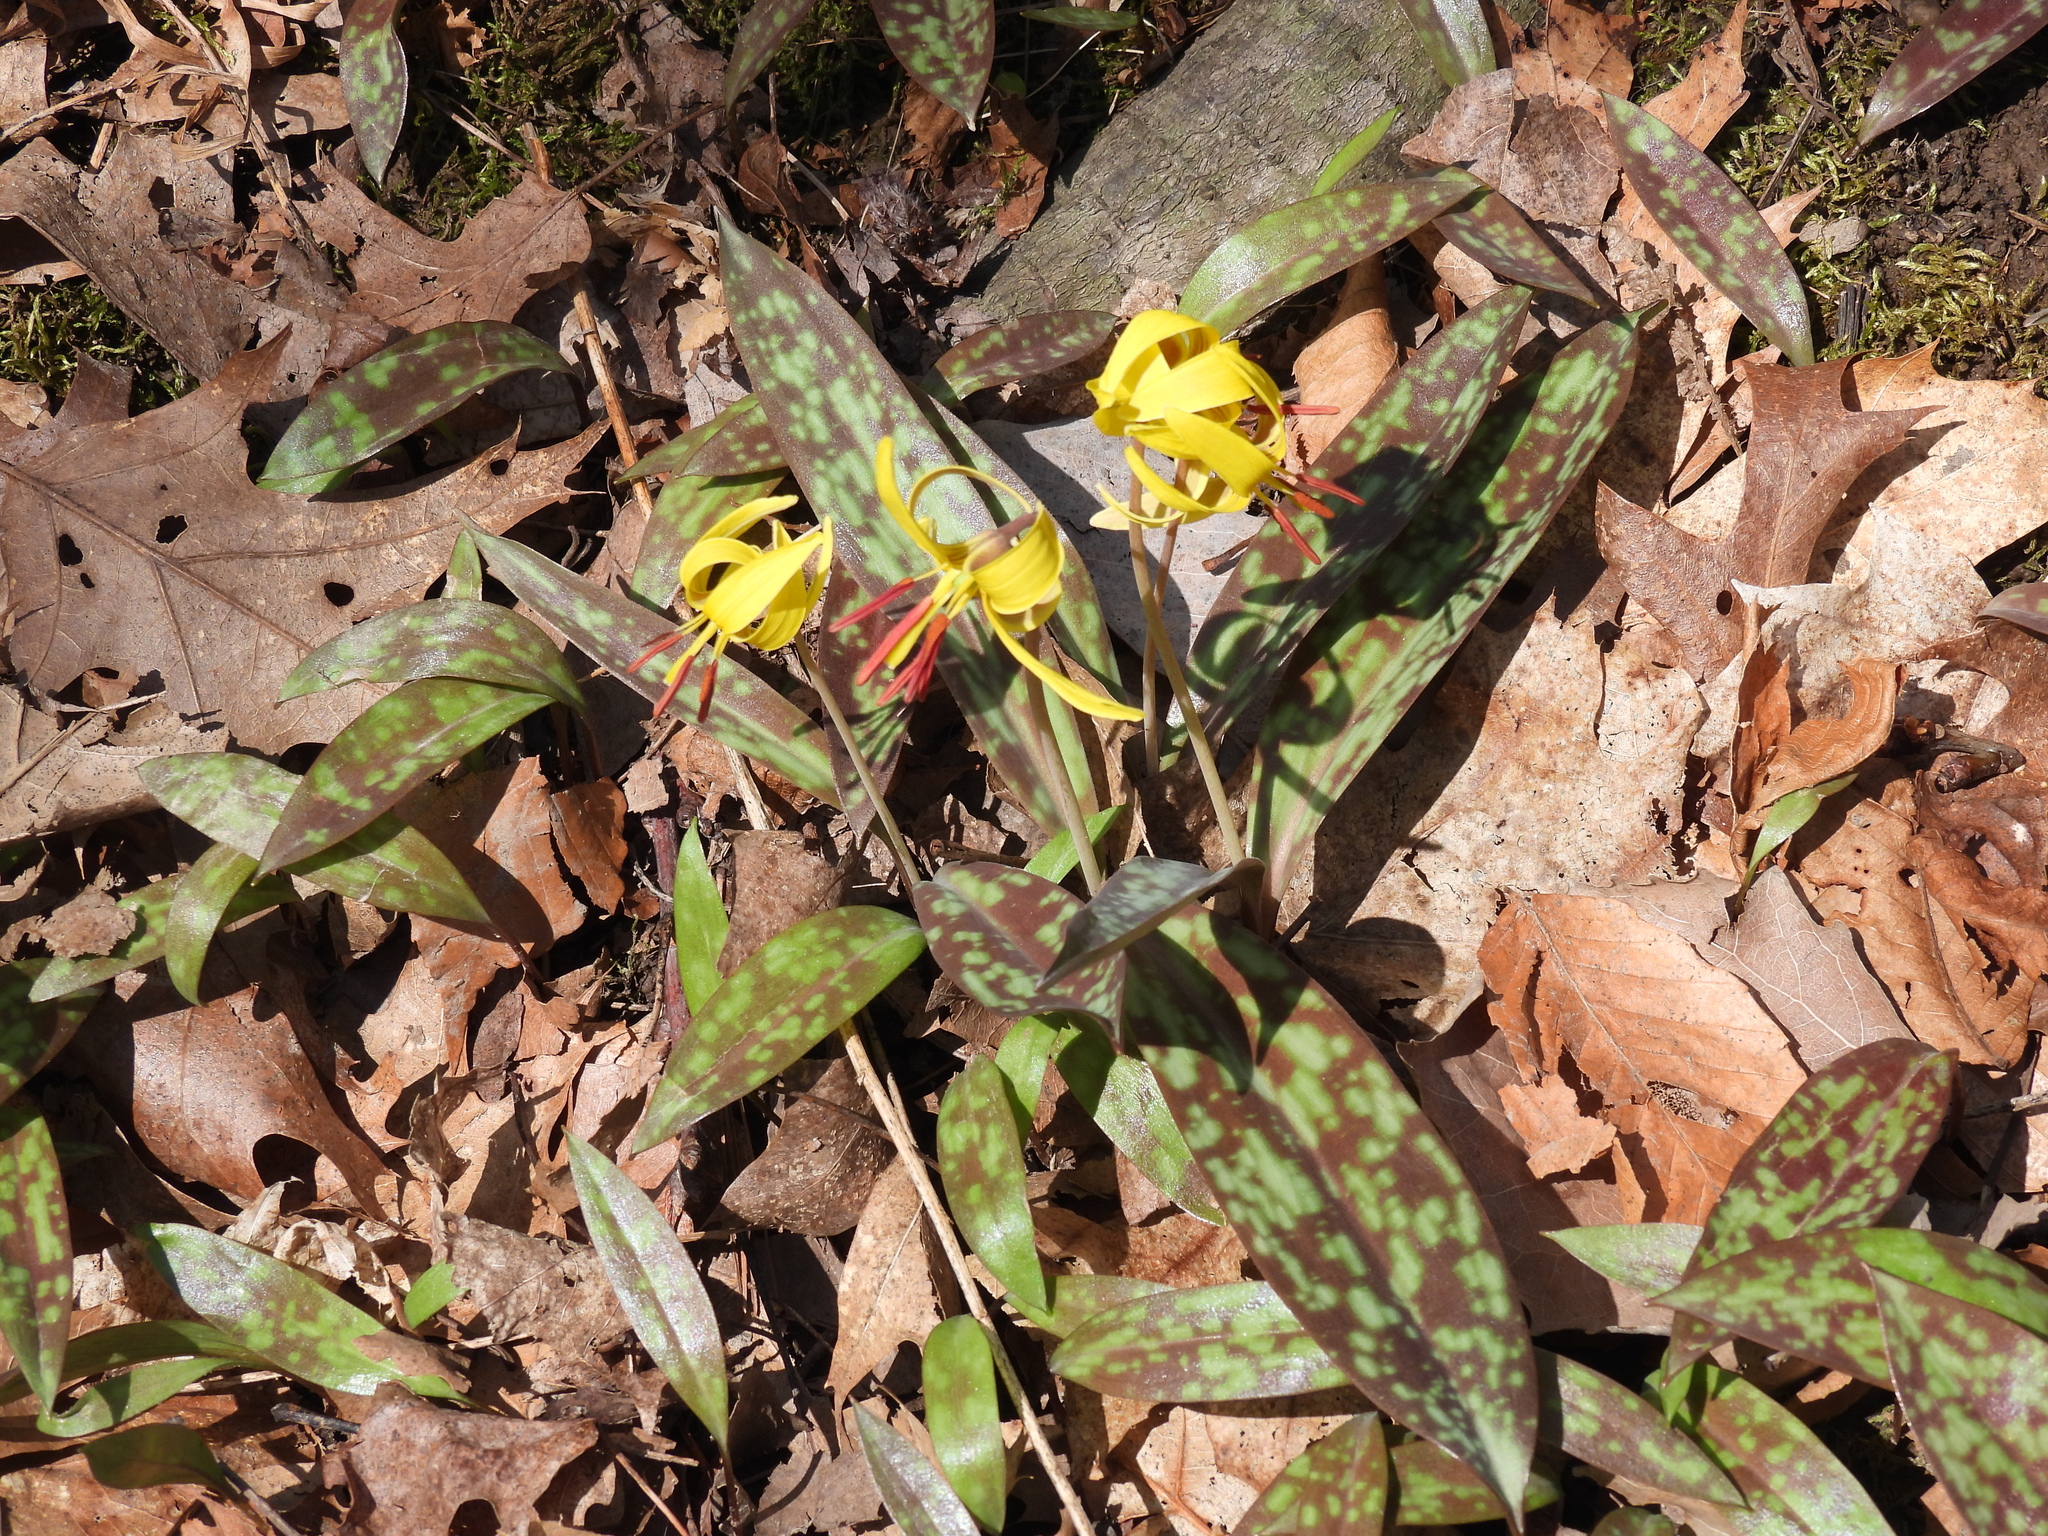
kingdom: Plantae
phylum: Tracheophyta
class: Liliopsida
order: Liliales
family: Liliaceae
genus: Erythronium
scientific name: Erythronium americanum
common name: Yellow adder's-tongue
